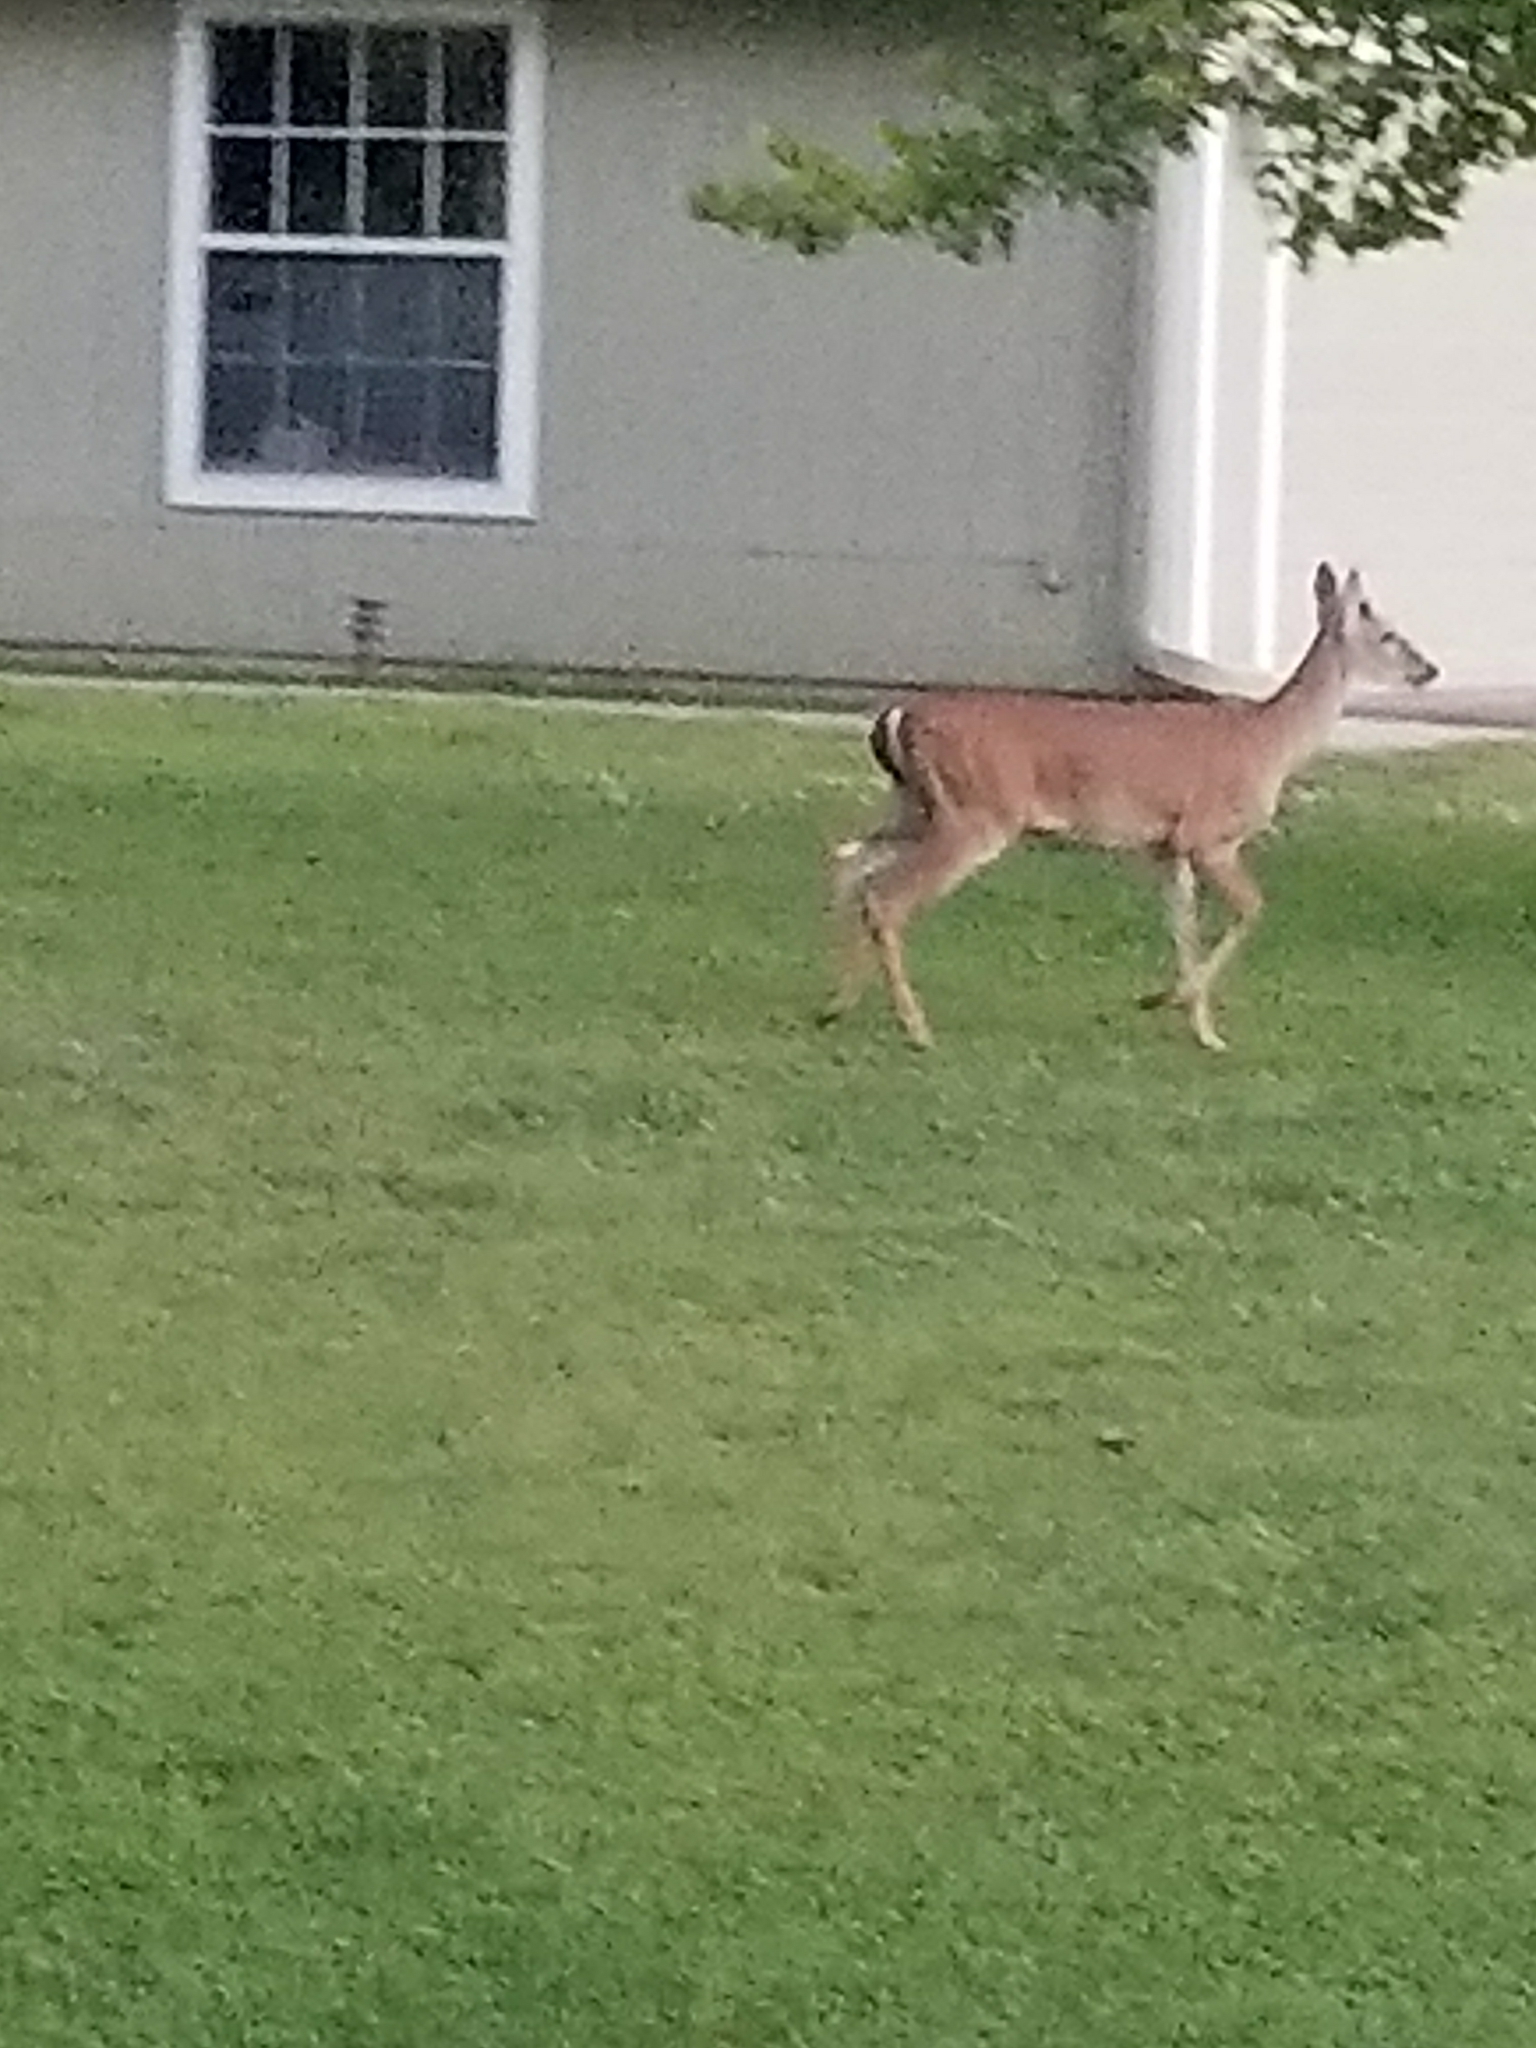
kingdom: Animalia
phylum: Chordata
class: Mammalia
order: Artiodactyla
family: Cervidae
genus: Odocoileus
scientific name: Odocoileus virginianus
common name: White-tailed deer
